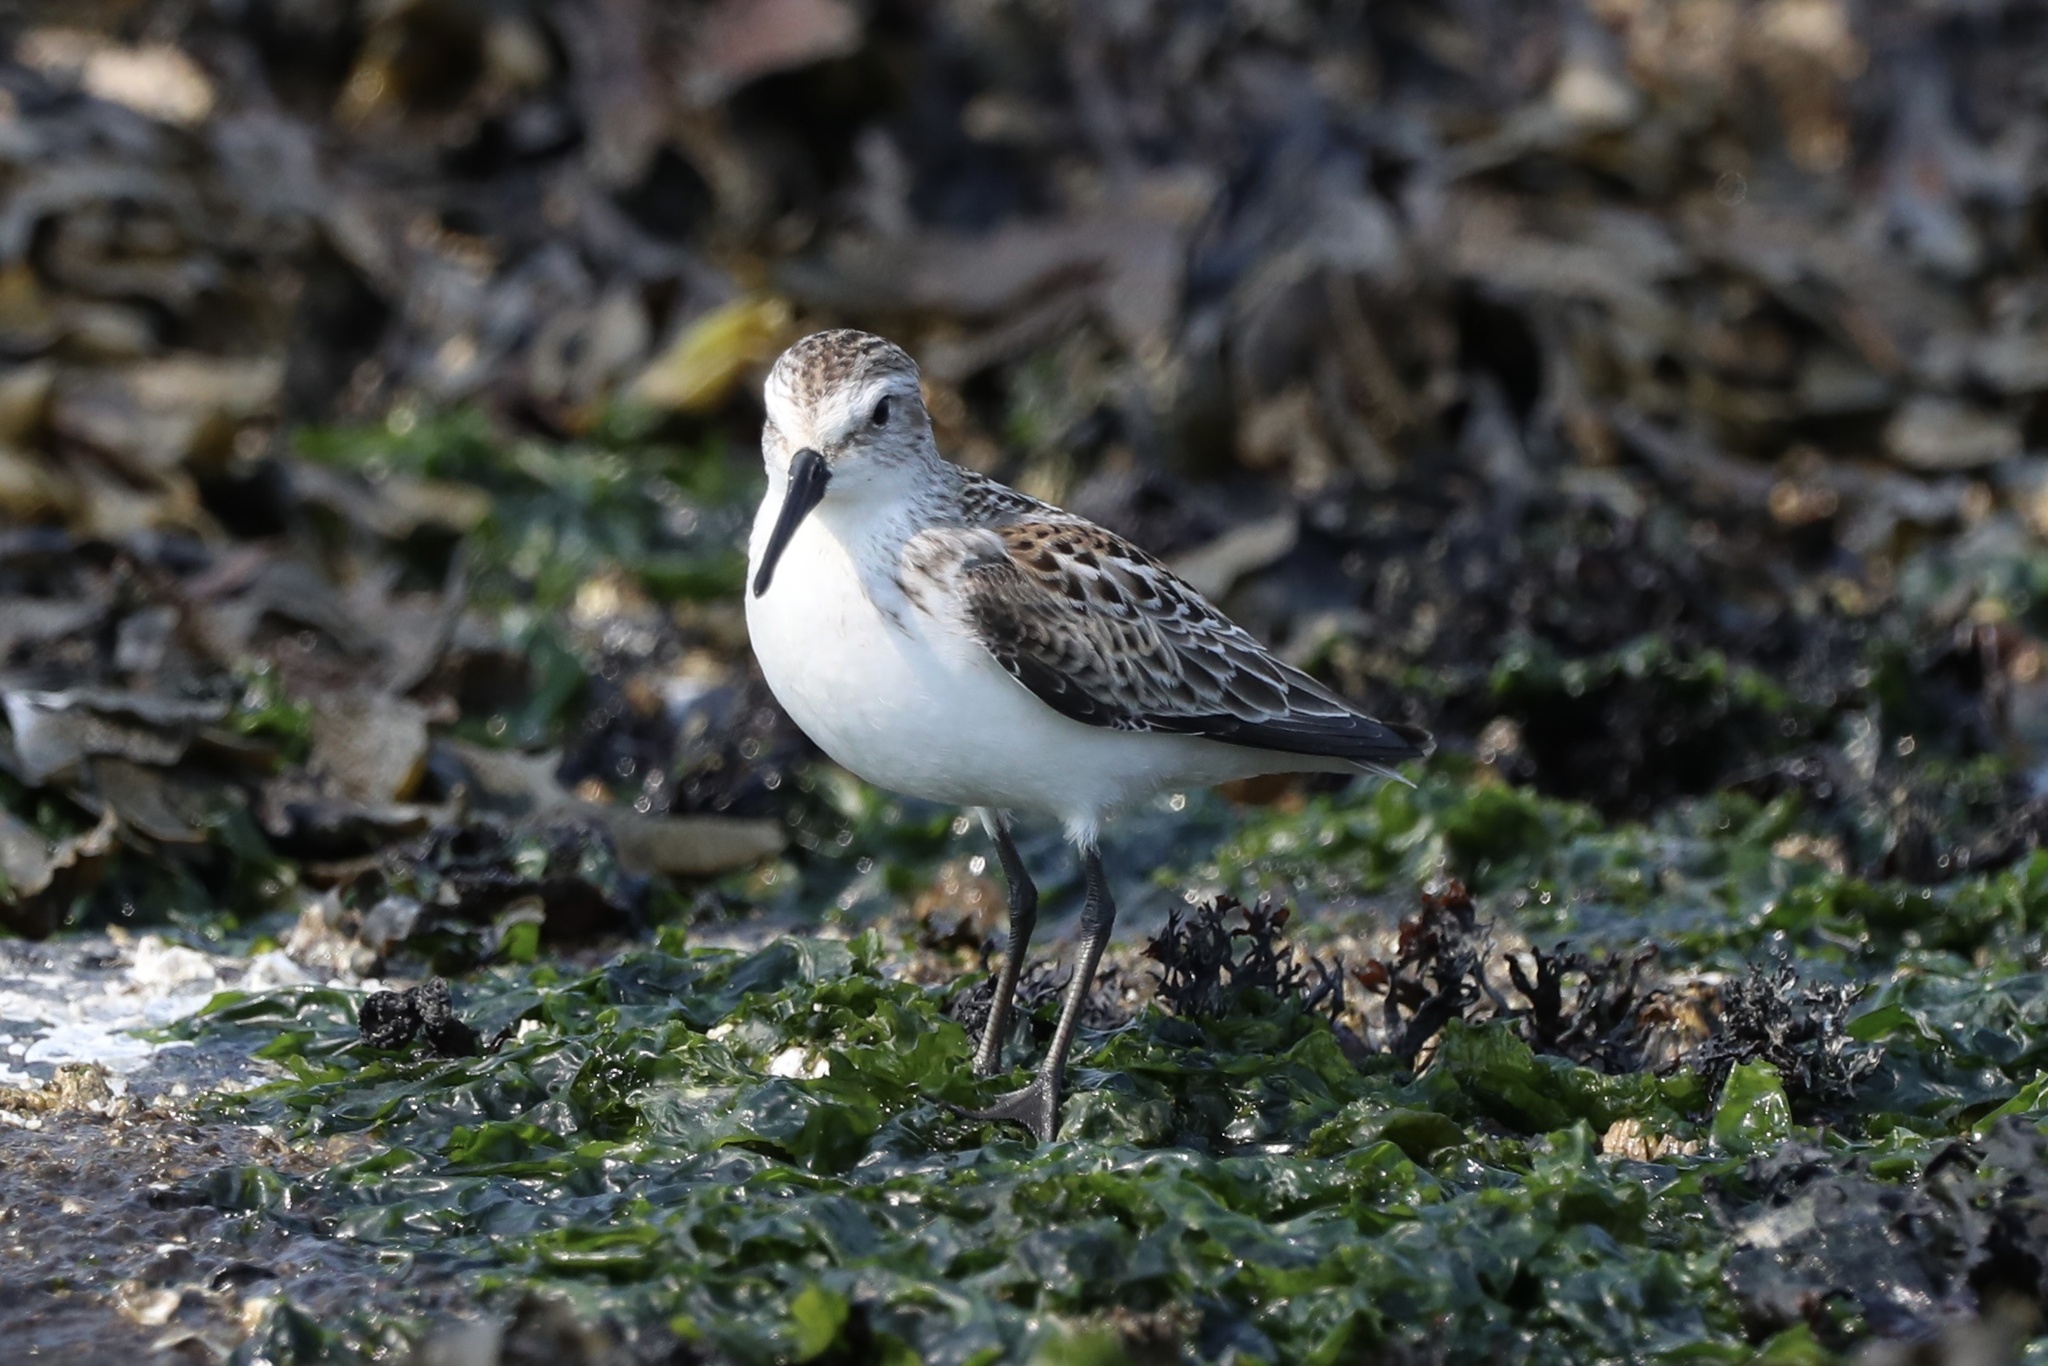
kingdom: Animalia
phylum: Chordata
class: Aves
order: Charadriiformes
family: Scolopacidae
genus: Calidris
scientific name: Calidris mauri
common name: Western sandpiper
